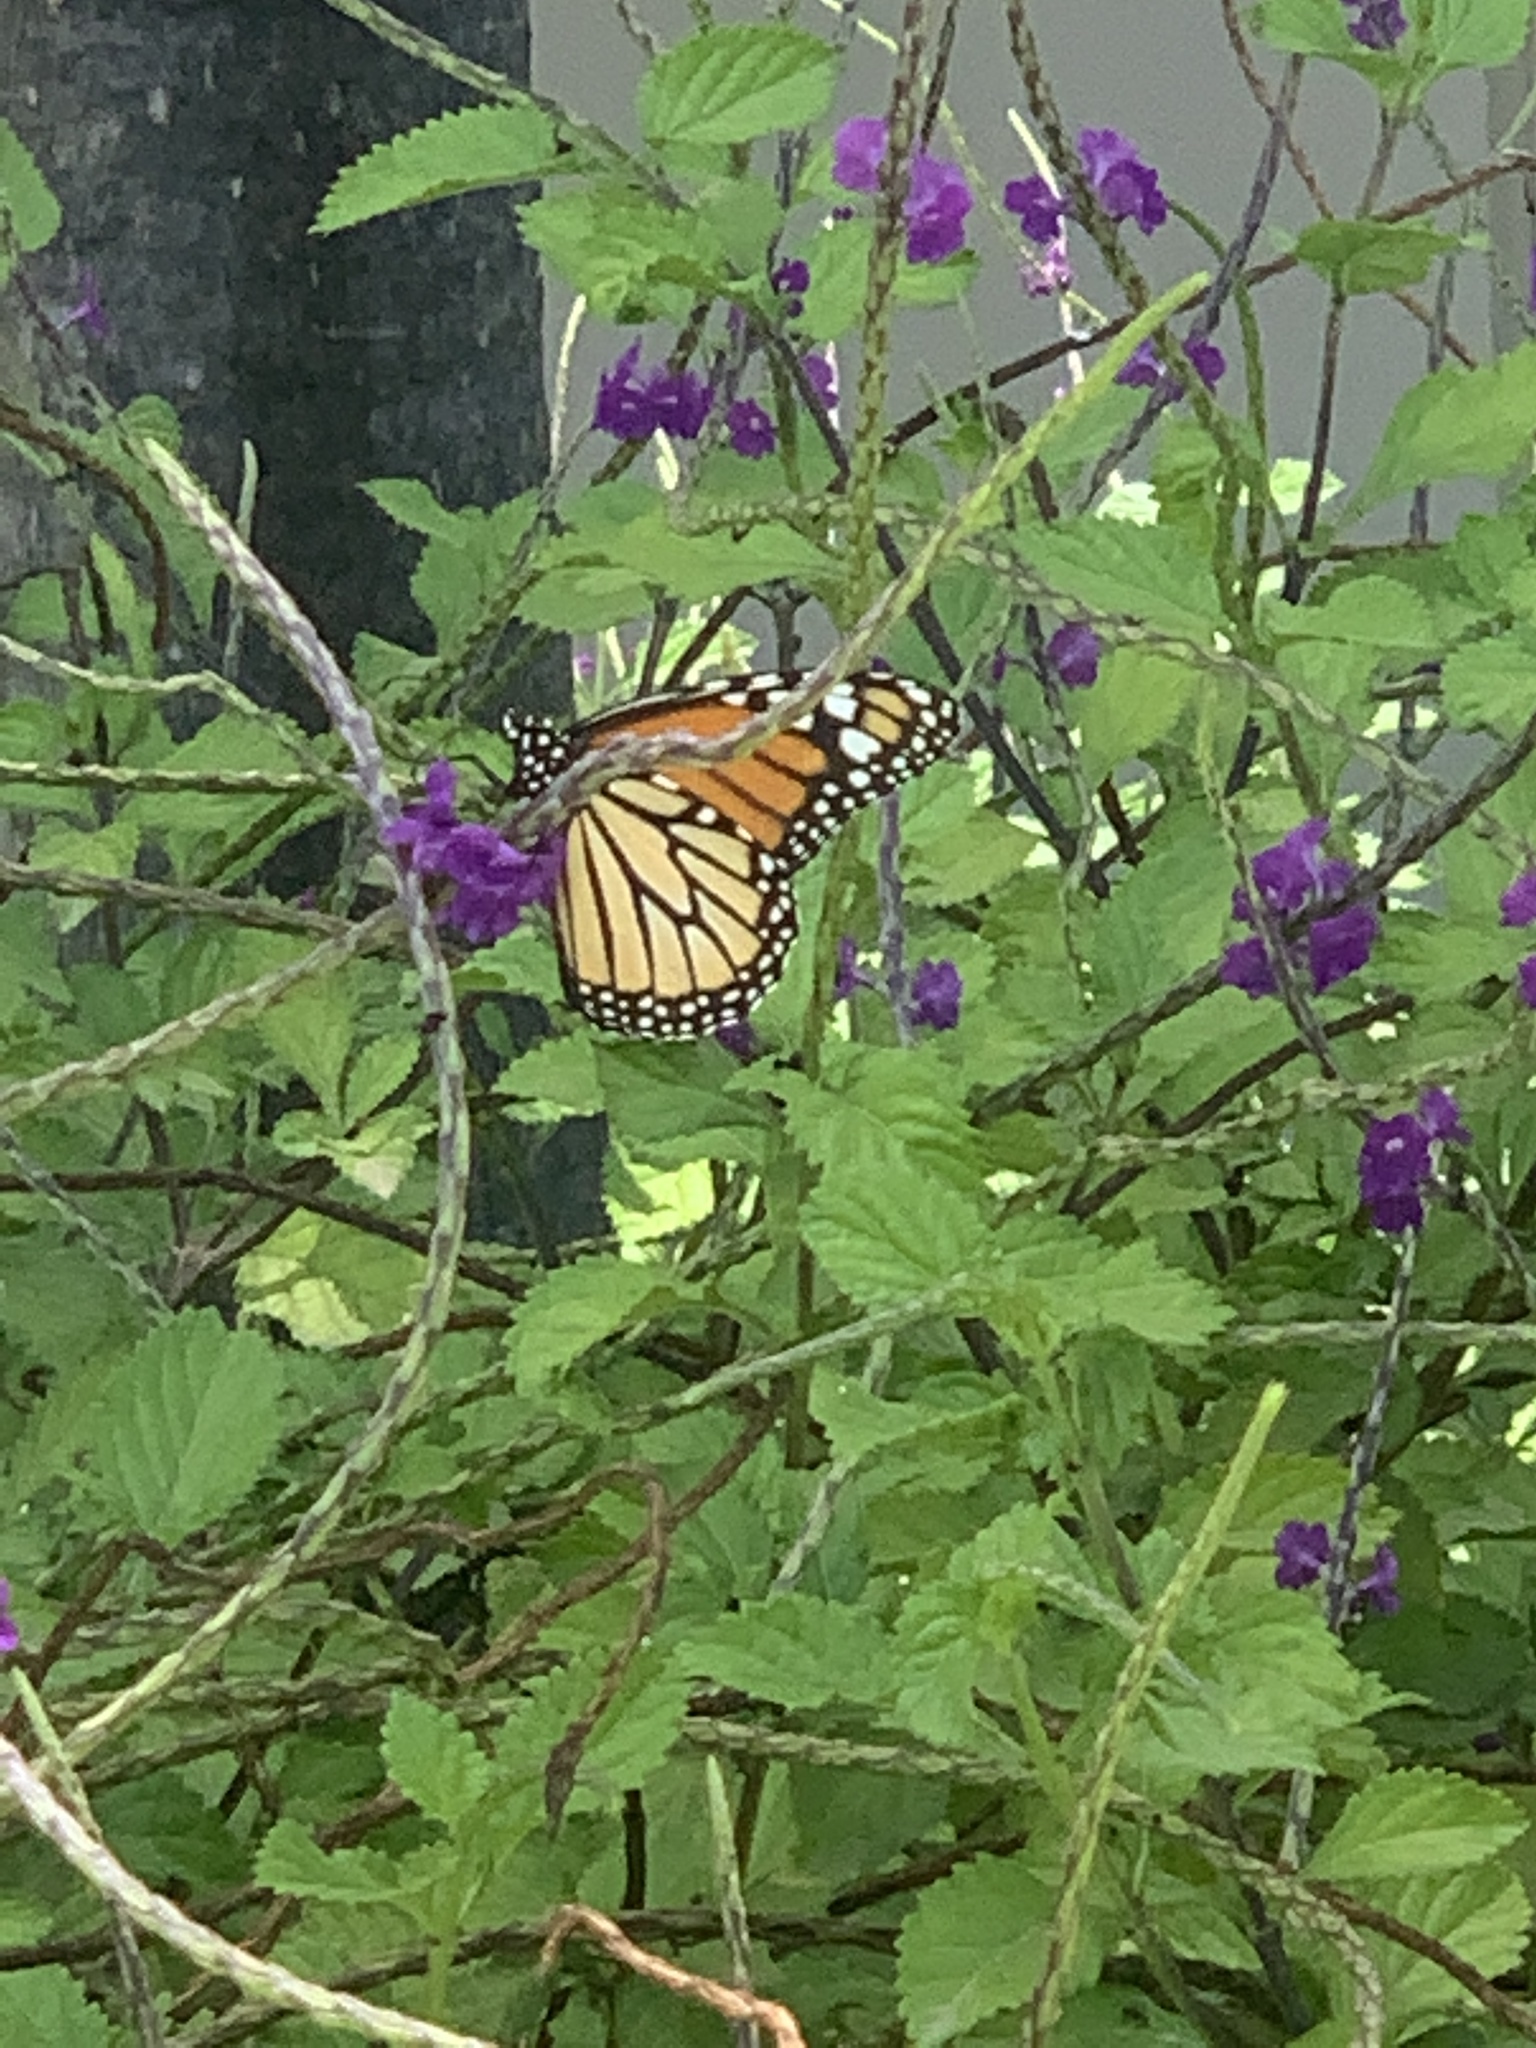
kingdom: Animalia
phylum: Arthropoda
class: Insecta
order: Lepidoptera
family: Nymphalidae
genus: Danaus
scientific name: Danaus plexippus
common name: Monarch
